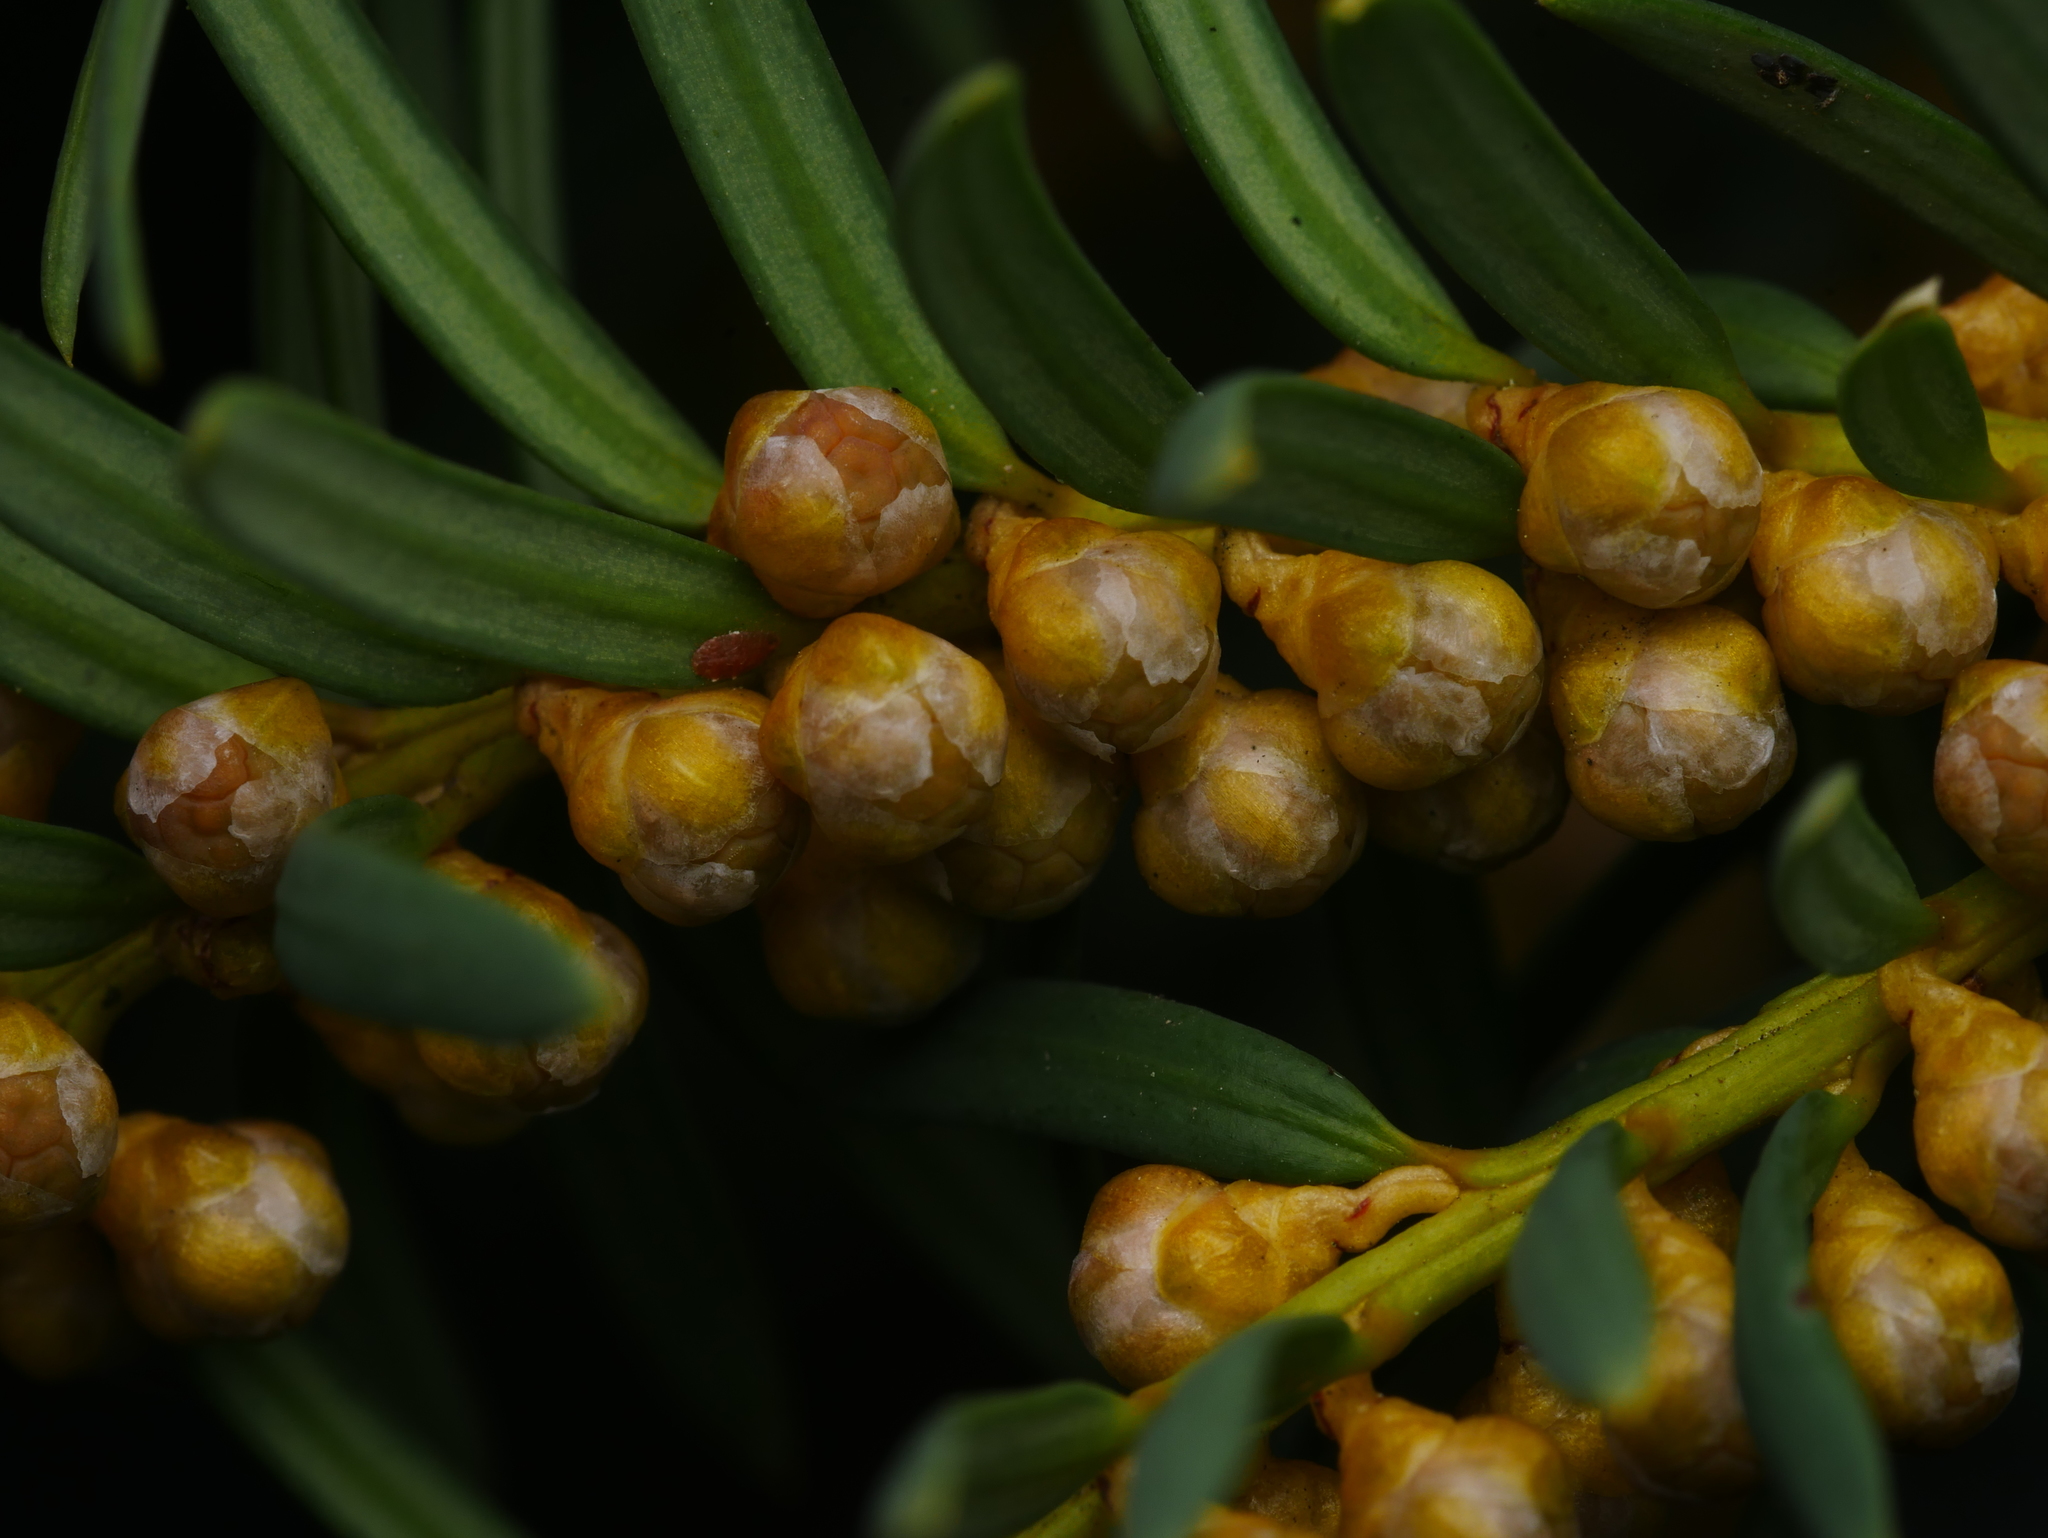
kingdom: Plantae
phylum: Tracheophyta
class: Pinopsida
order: Pinales
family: Taxaceae
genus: Taxus
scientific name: Taxus baccata
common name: Yew
